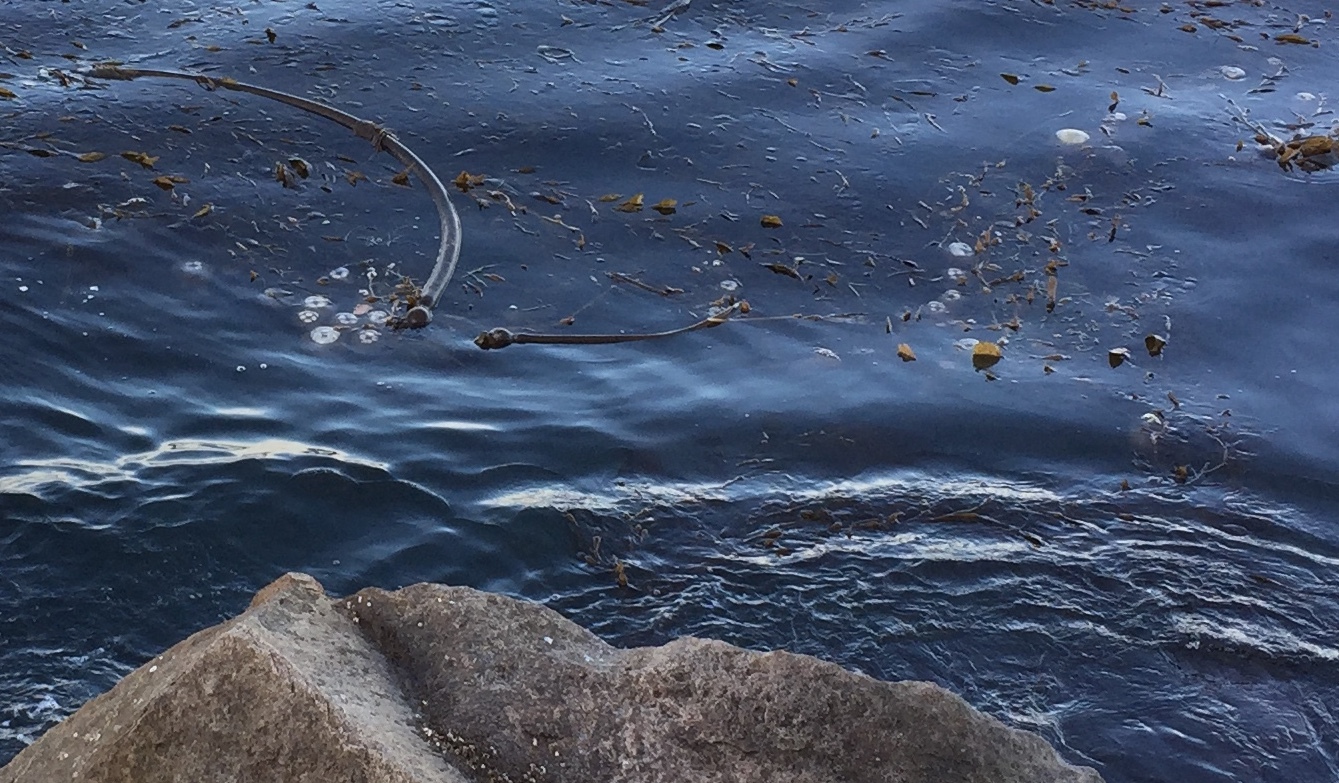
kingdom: Animalia
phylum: Cnidaria
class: Scyphozoa
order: Semaeostomeae
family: Pelagiidae
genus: Chrysaora
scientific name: Chrysaora fuscescens
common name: Sea nettle
